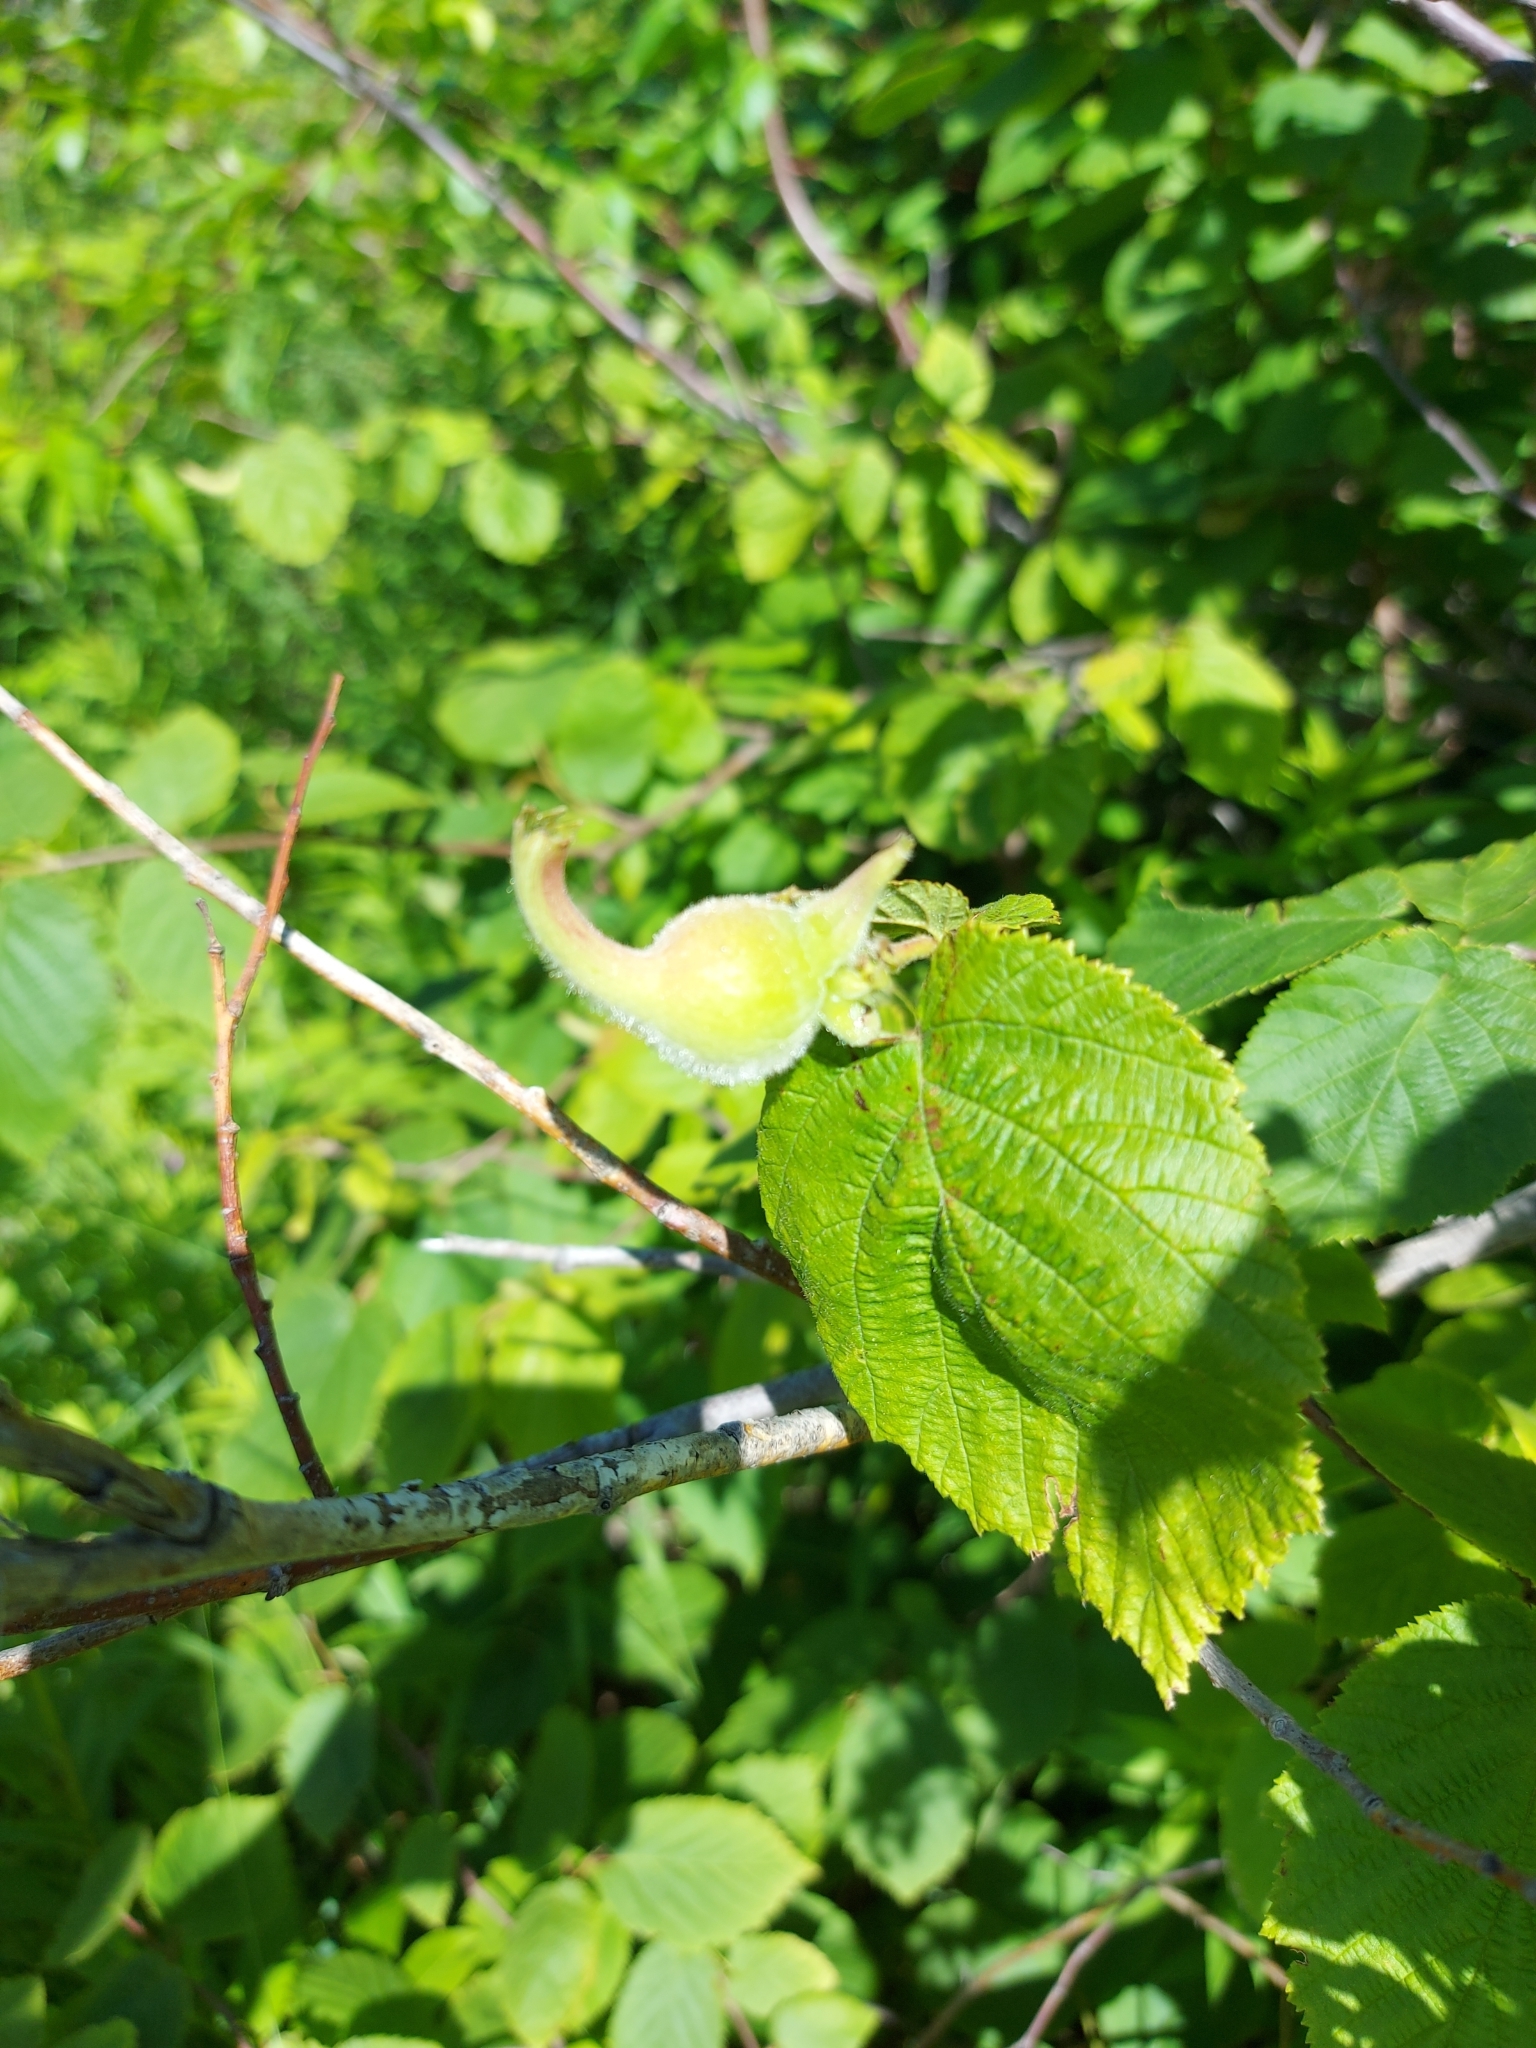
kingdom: Plantae
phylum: Tracheophyta
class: Magnoliopsida
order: Fagales
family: Betulaceae
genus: Corylus
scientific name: Corylus cornuta
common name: Beaked hazel
